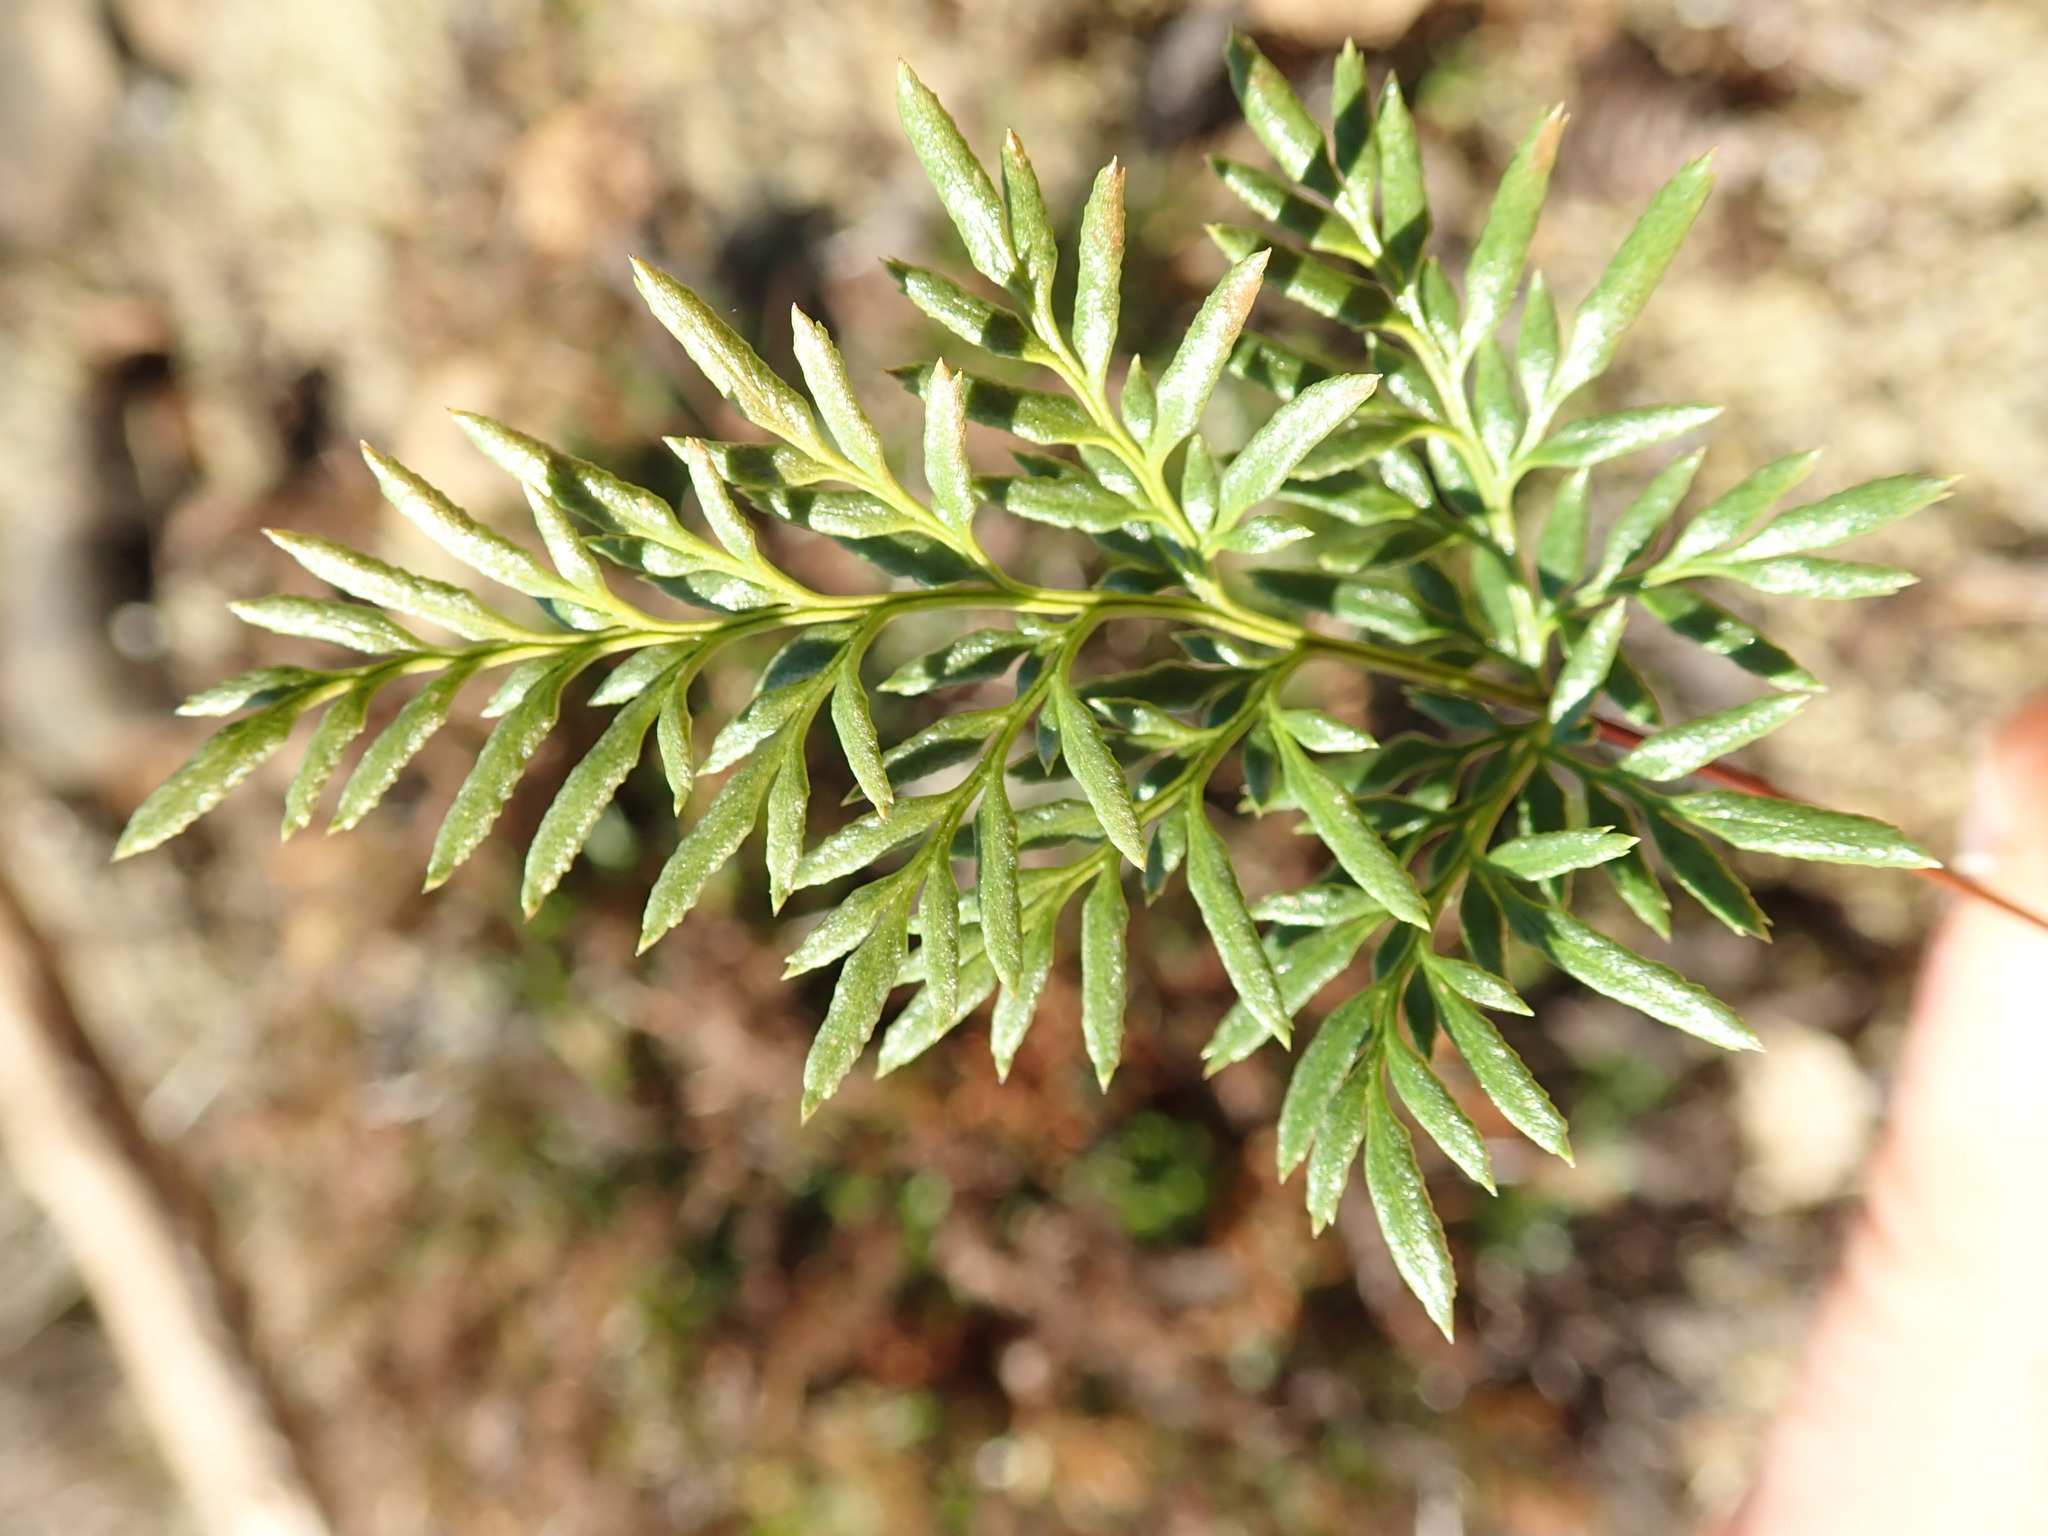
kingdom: Plantae
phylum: Tracheophyta
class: Polypodiopsida
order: Polypodiales
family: Pteridaceae
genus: Aspidotis
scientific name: Aspidotis densa
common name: Indian's dream
